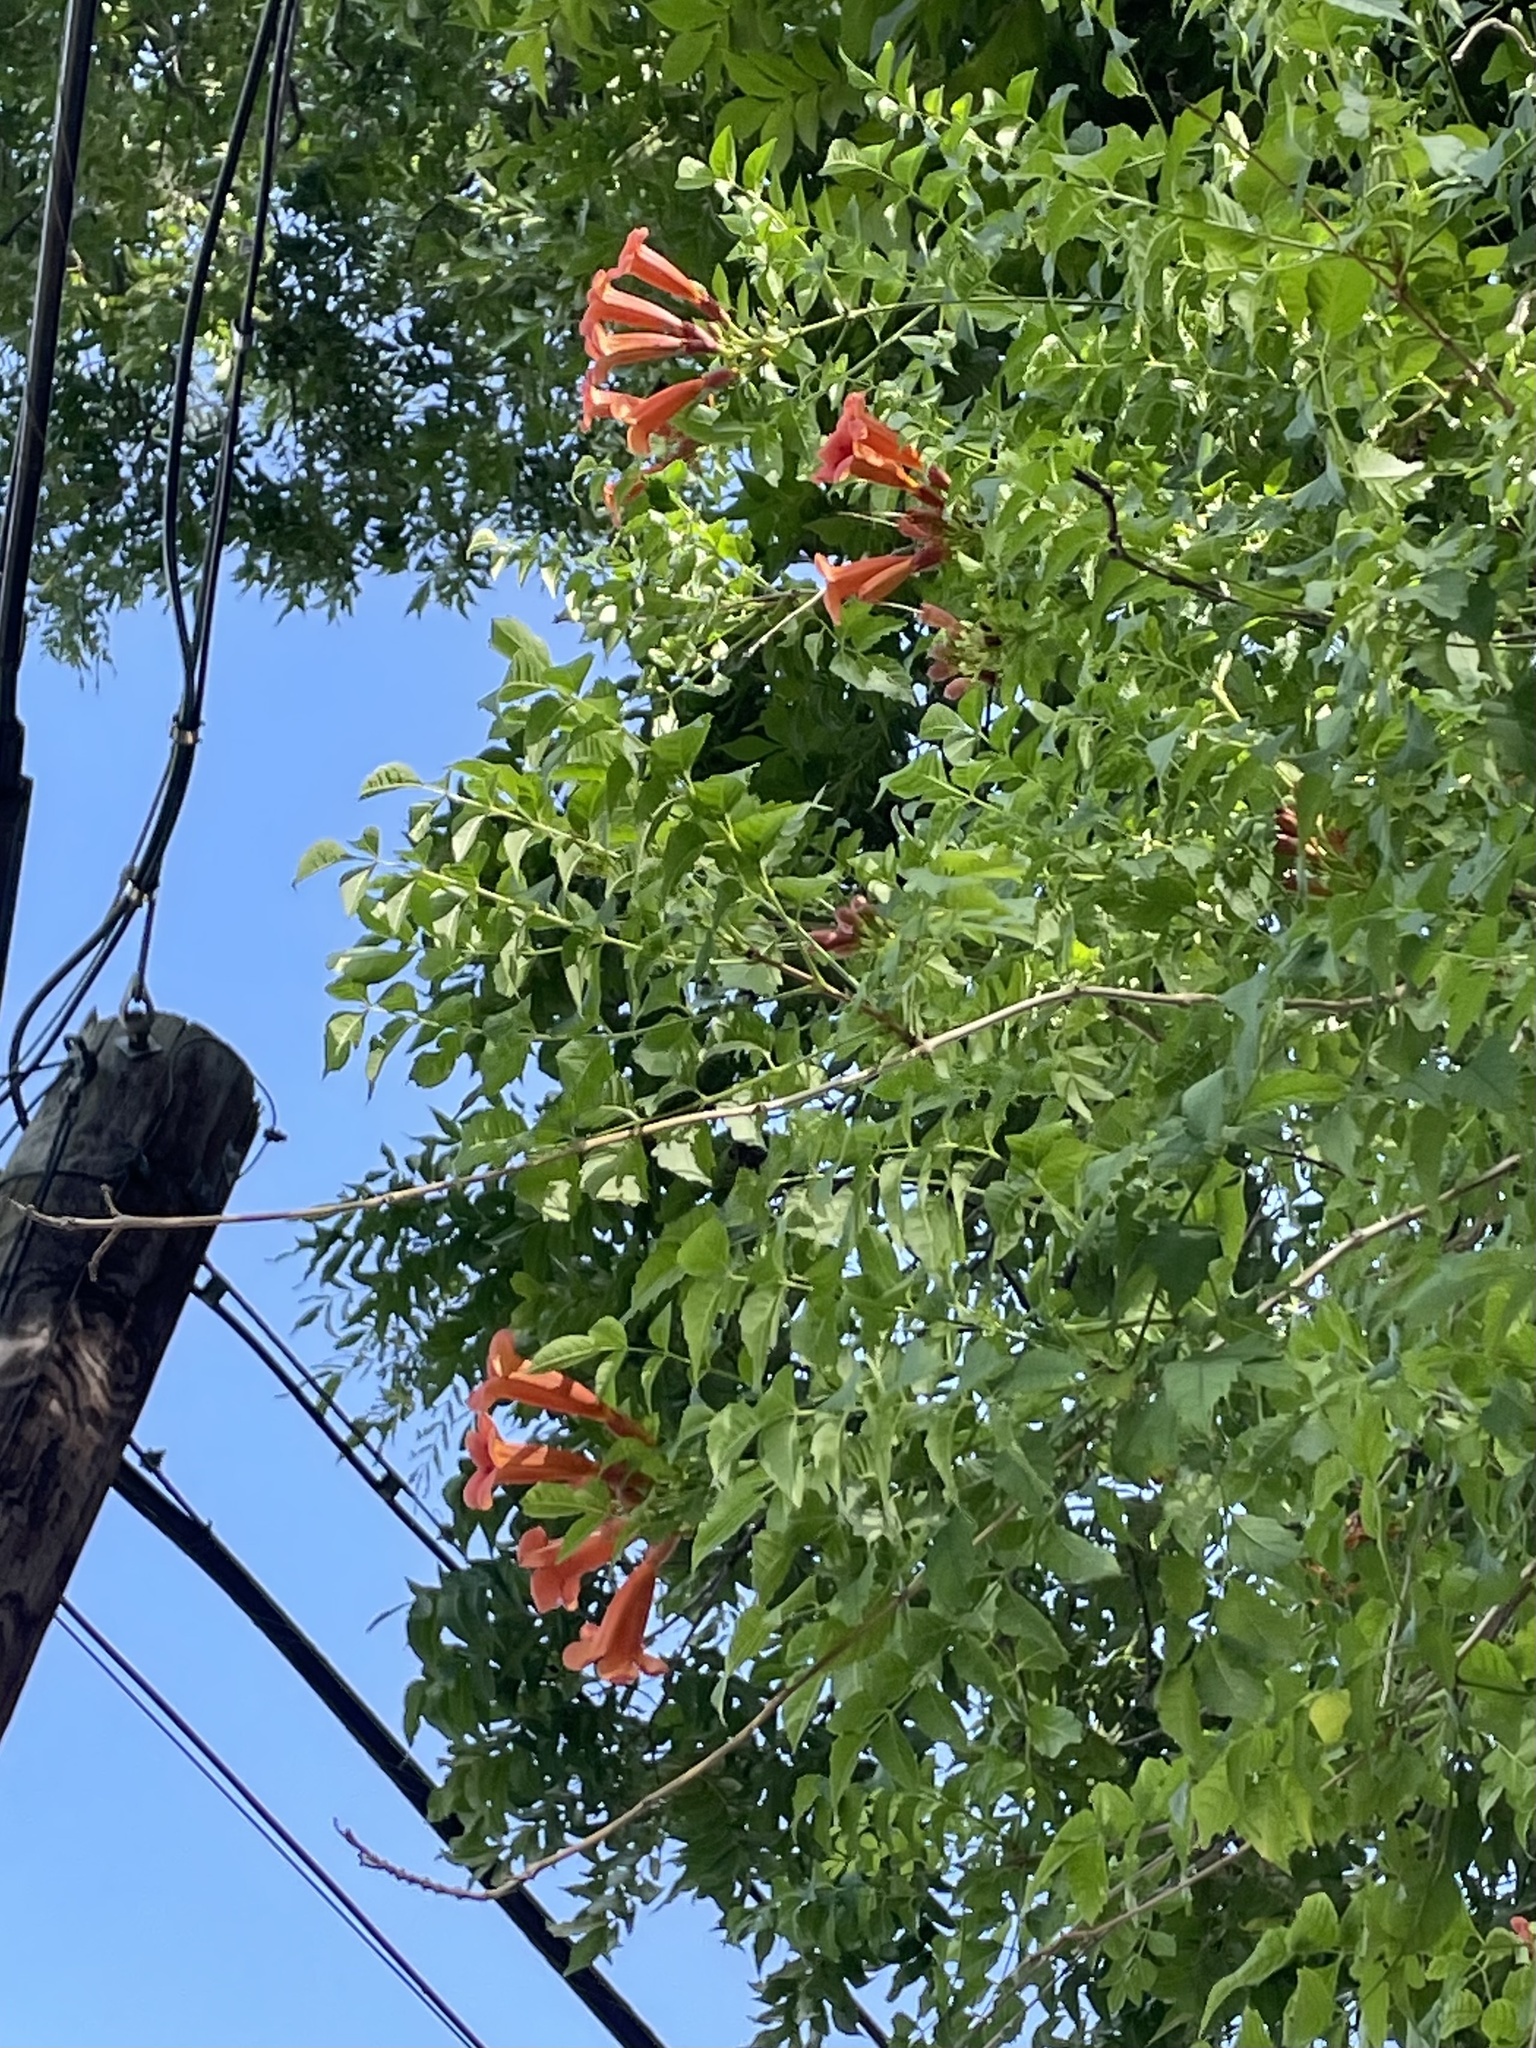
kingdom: Plantae
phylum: Tracheophyta
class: Magnoliopsida
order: Lamiales
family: Bignoniaceae
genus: Campsis
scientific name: Campsis radicans
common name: Trumpet-creeper
